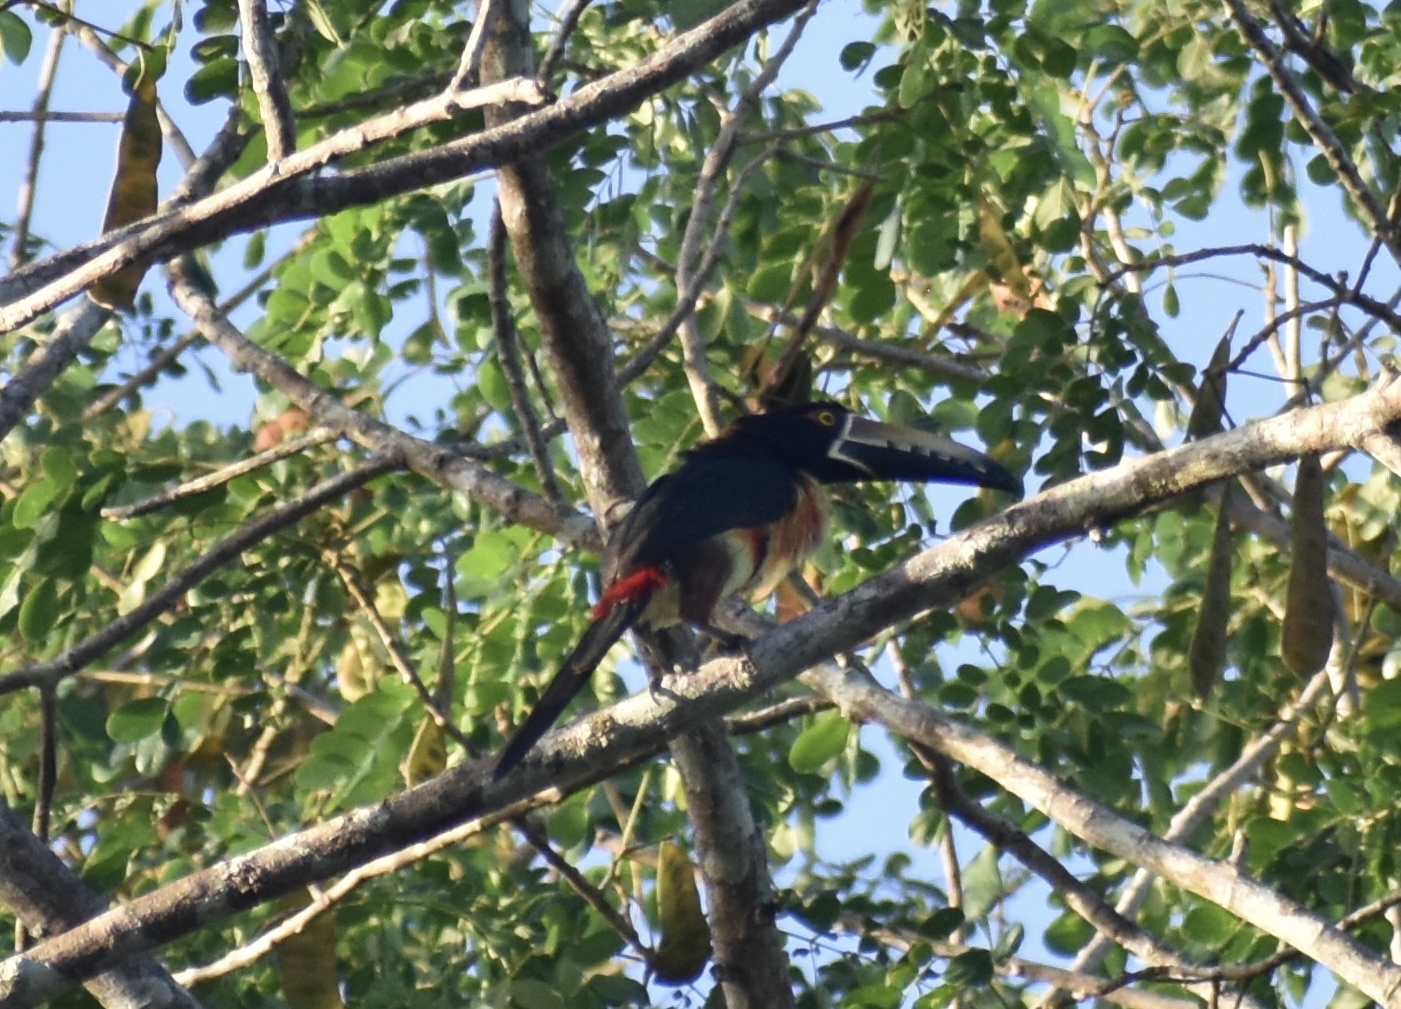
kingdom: Animalia
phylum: Chordata
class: Aves
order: Piciformes
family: Ramphastidae
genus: Pteroglossus
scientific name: Pteroglossus torquatus
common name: Collared aracari
